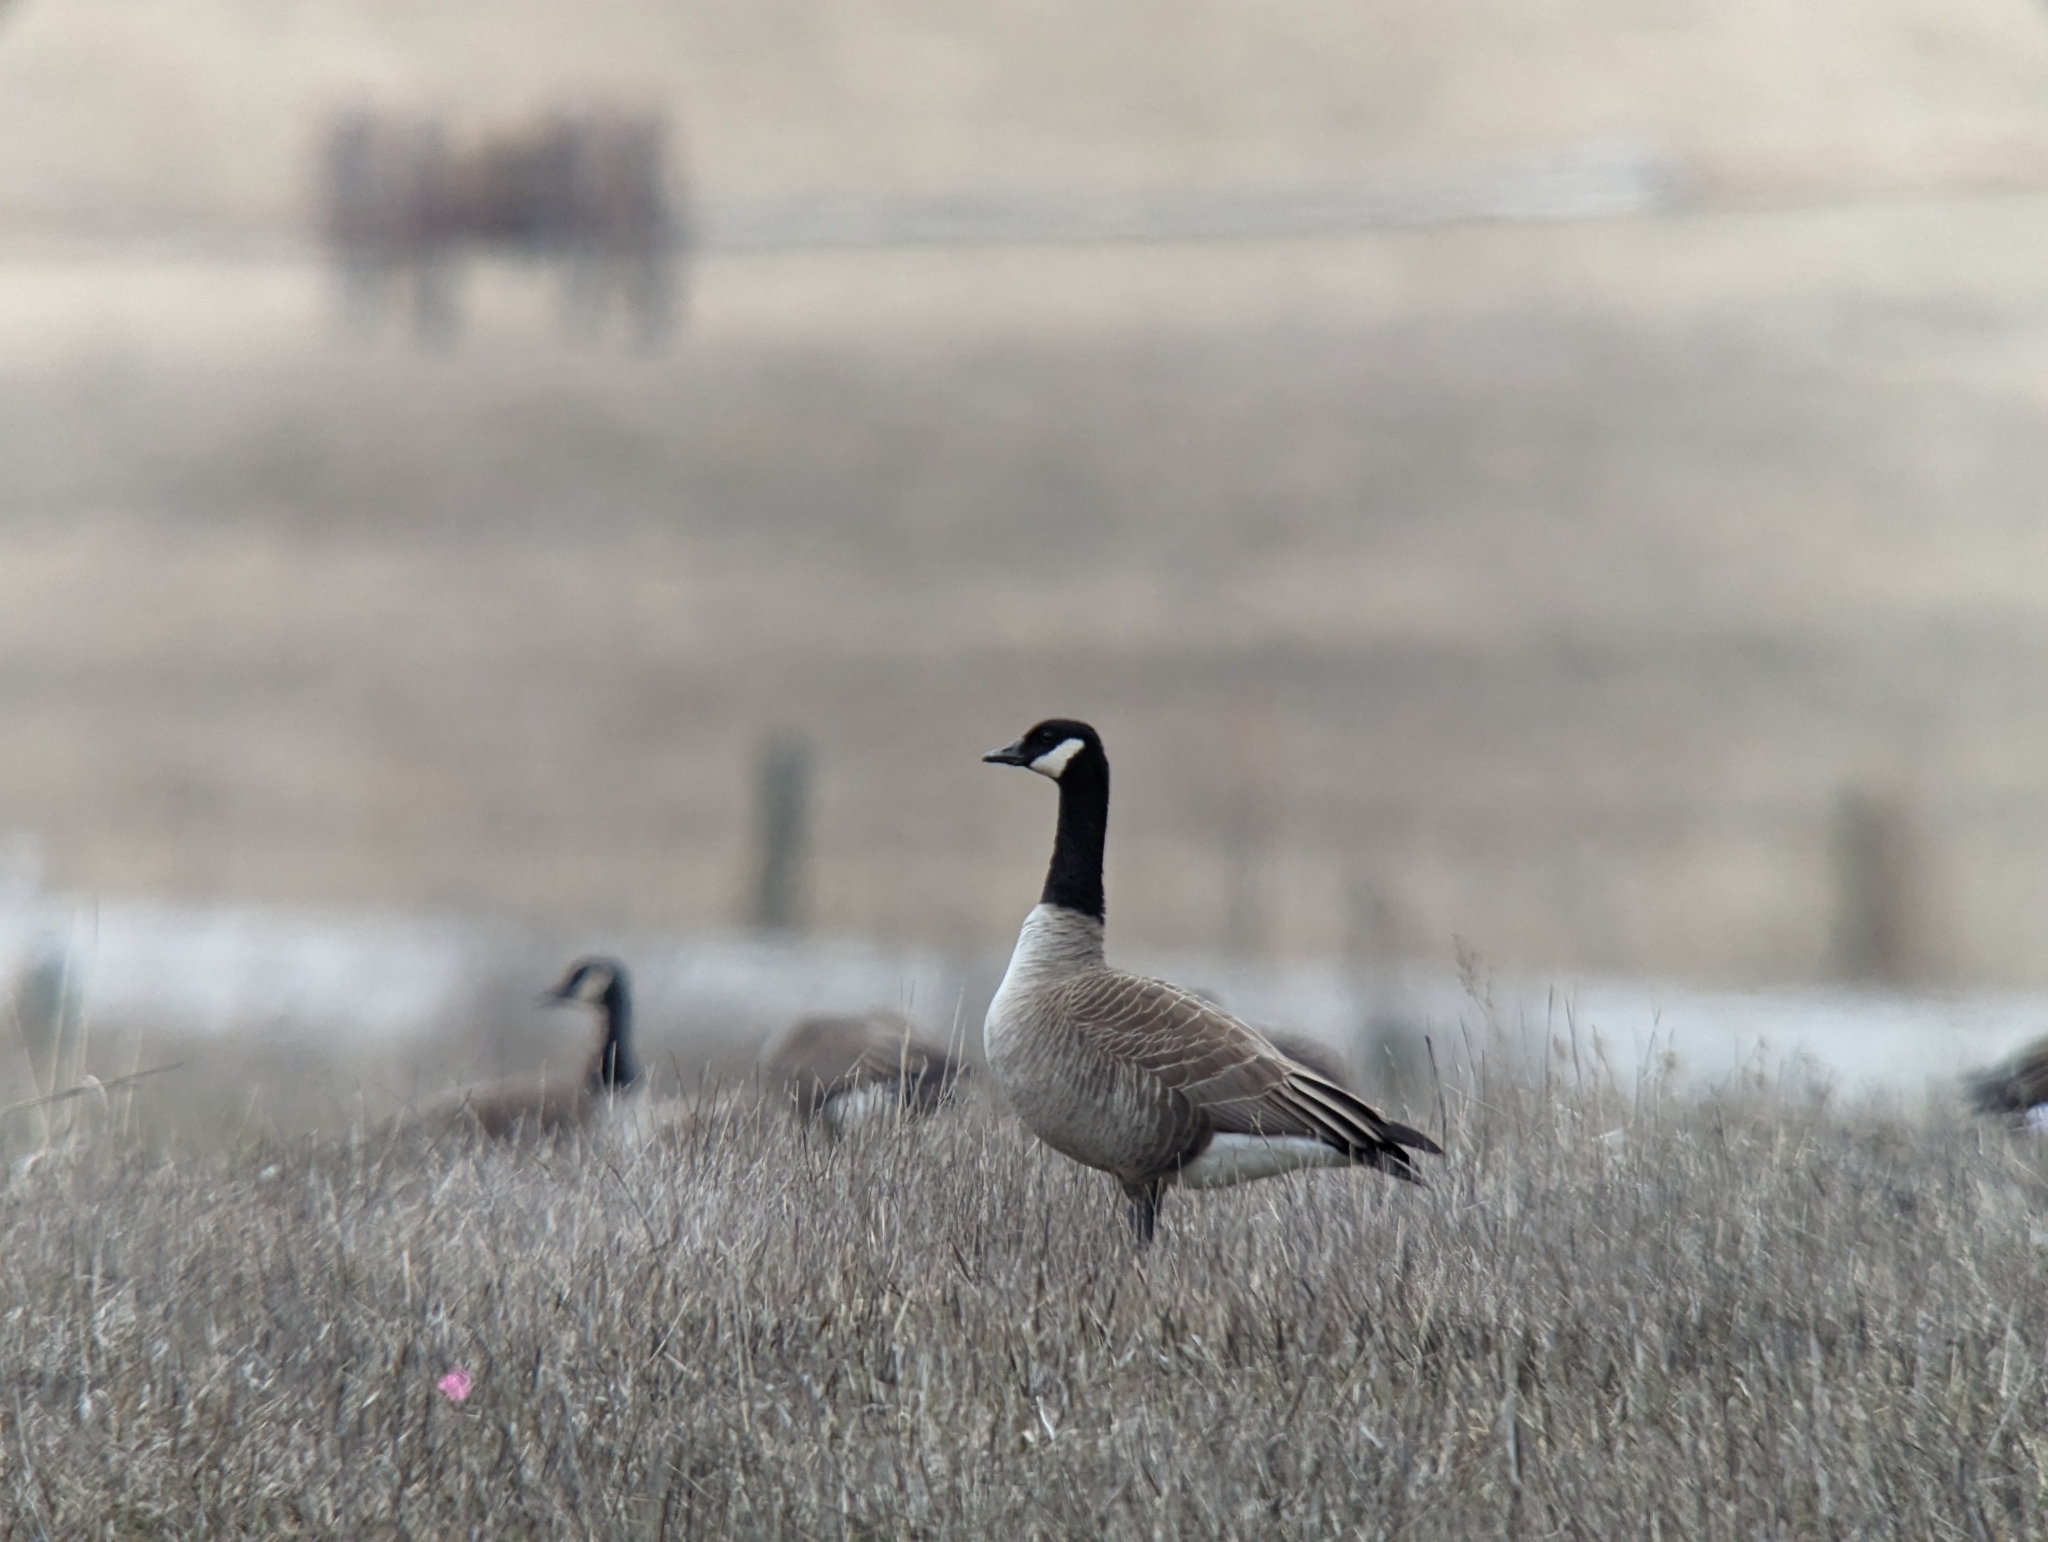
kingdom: Animalia
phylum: Chordata
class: Aves
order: Anseriformes
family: Anatidae
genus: Branta
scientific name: Branta canadensis
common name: Canada goose
